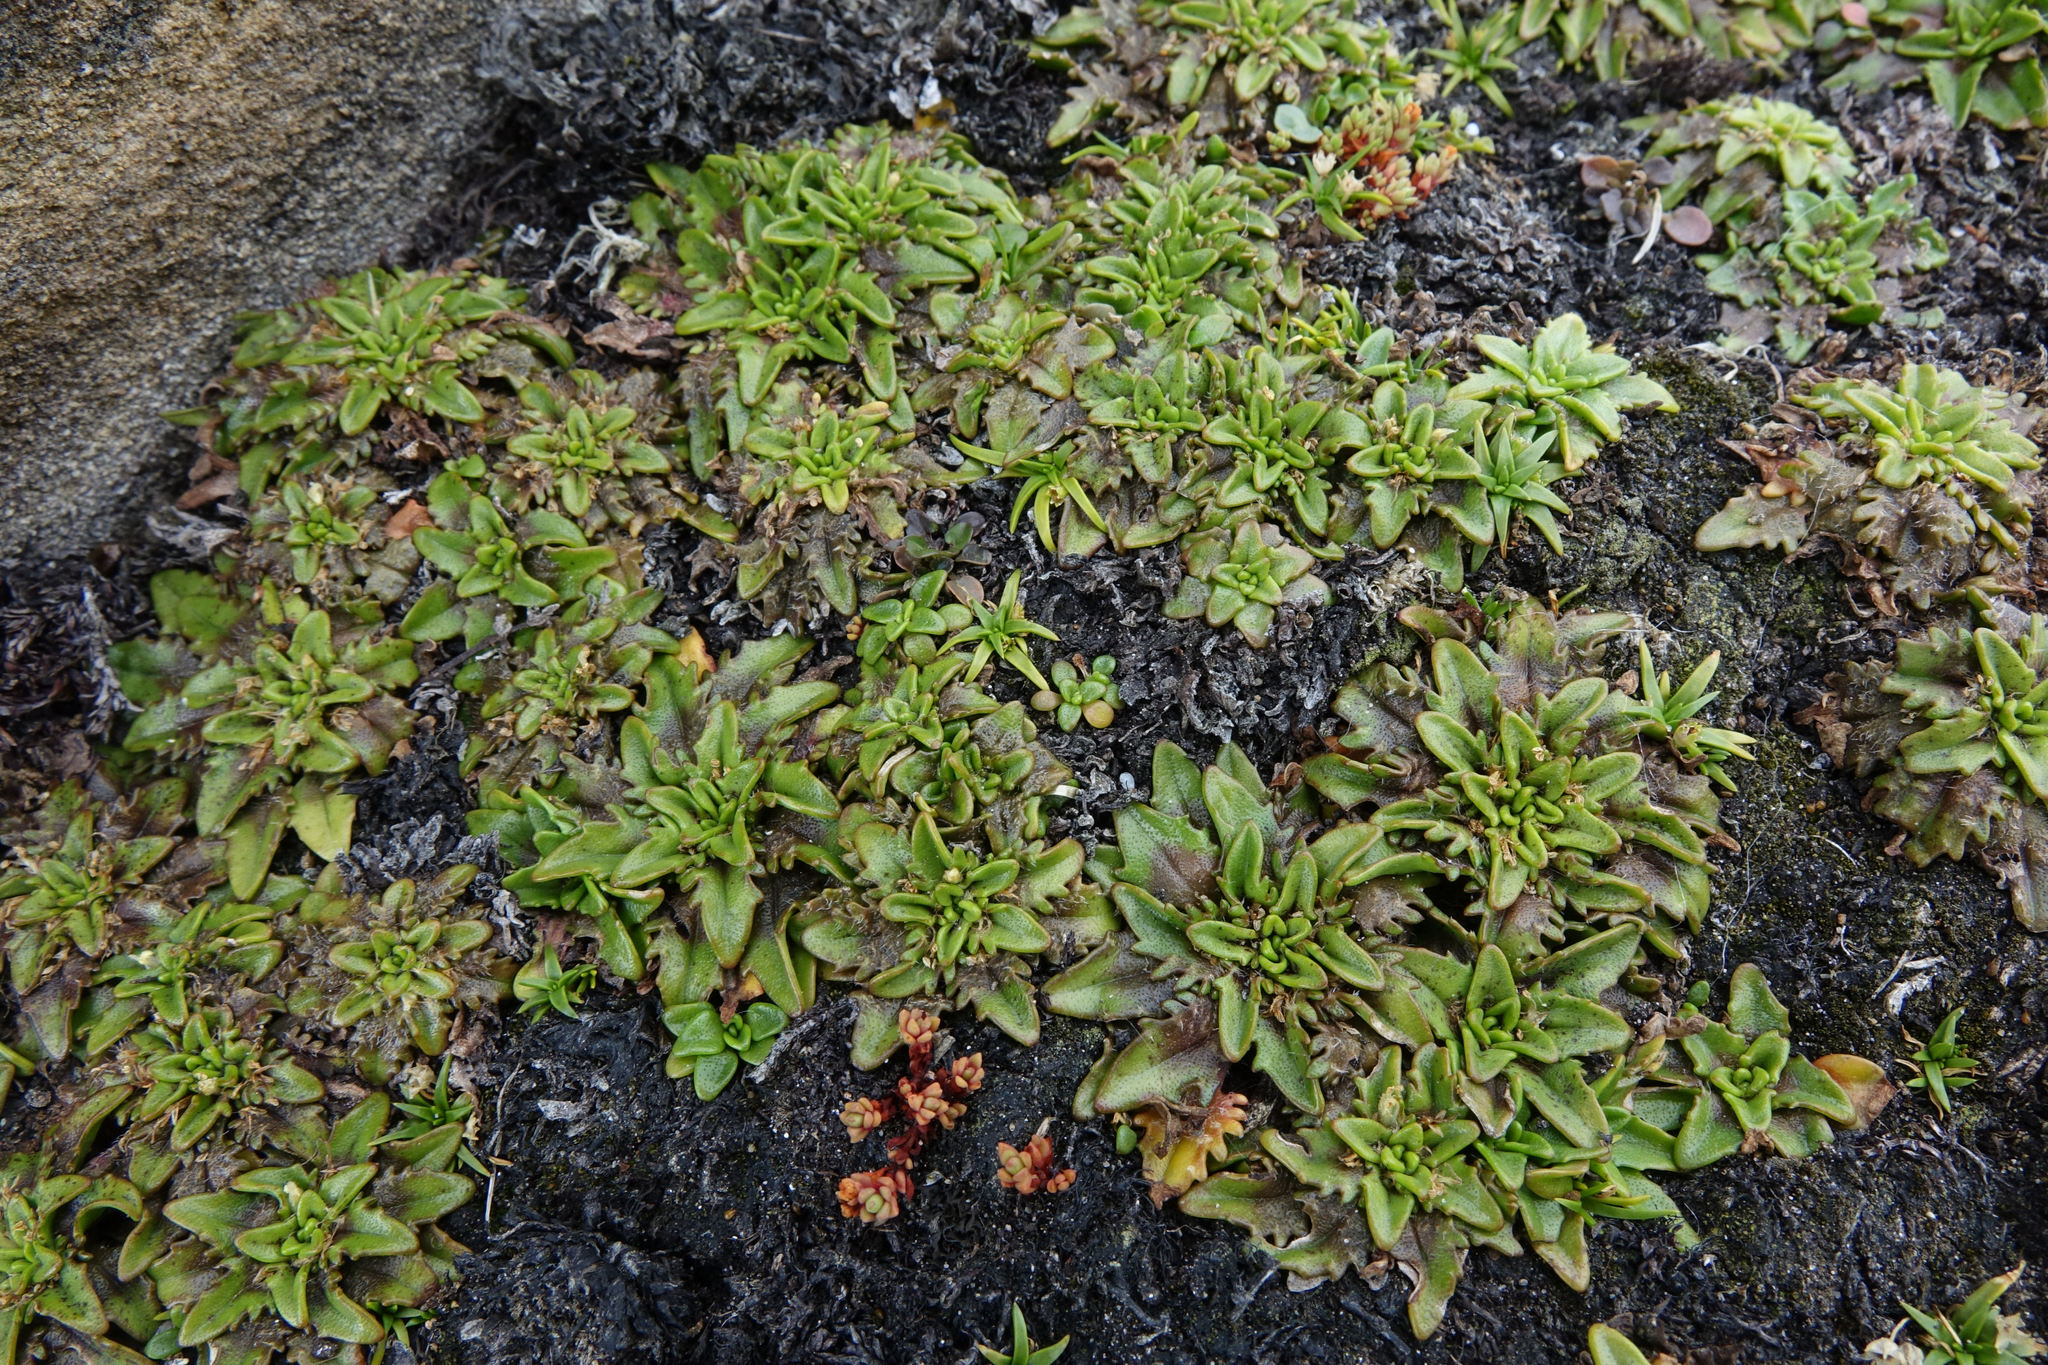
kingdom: Plantae
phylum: Tracheophyta
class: Magnoliopsida
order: Lamiales
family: Plantaginaceae
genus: Plantago
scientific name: Plantago triandra
